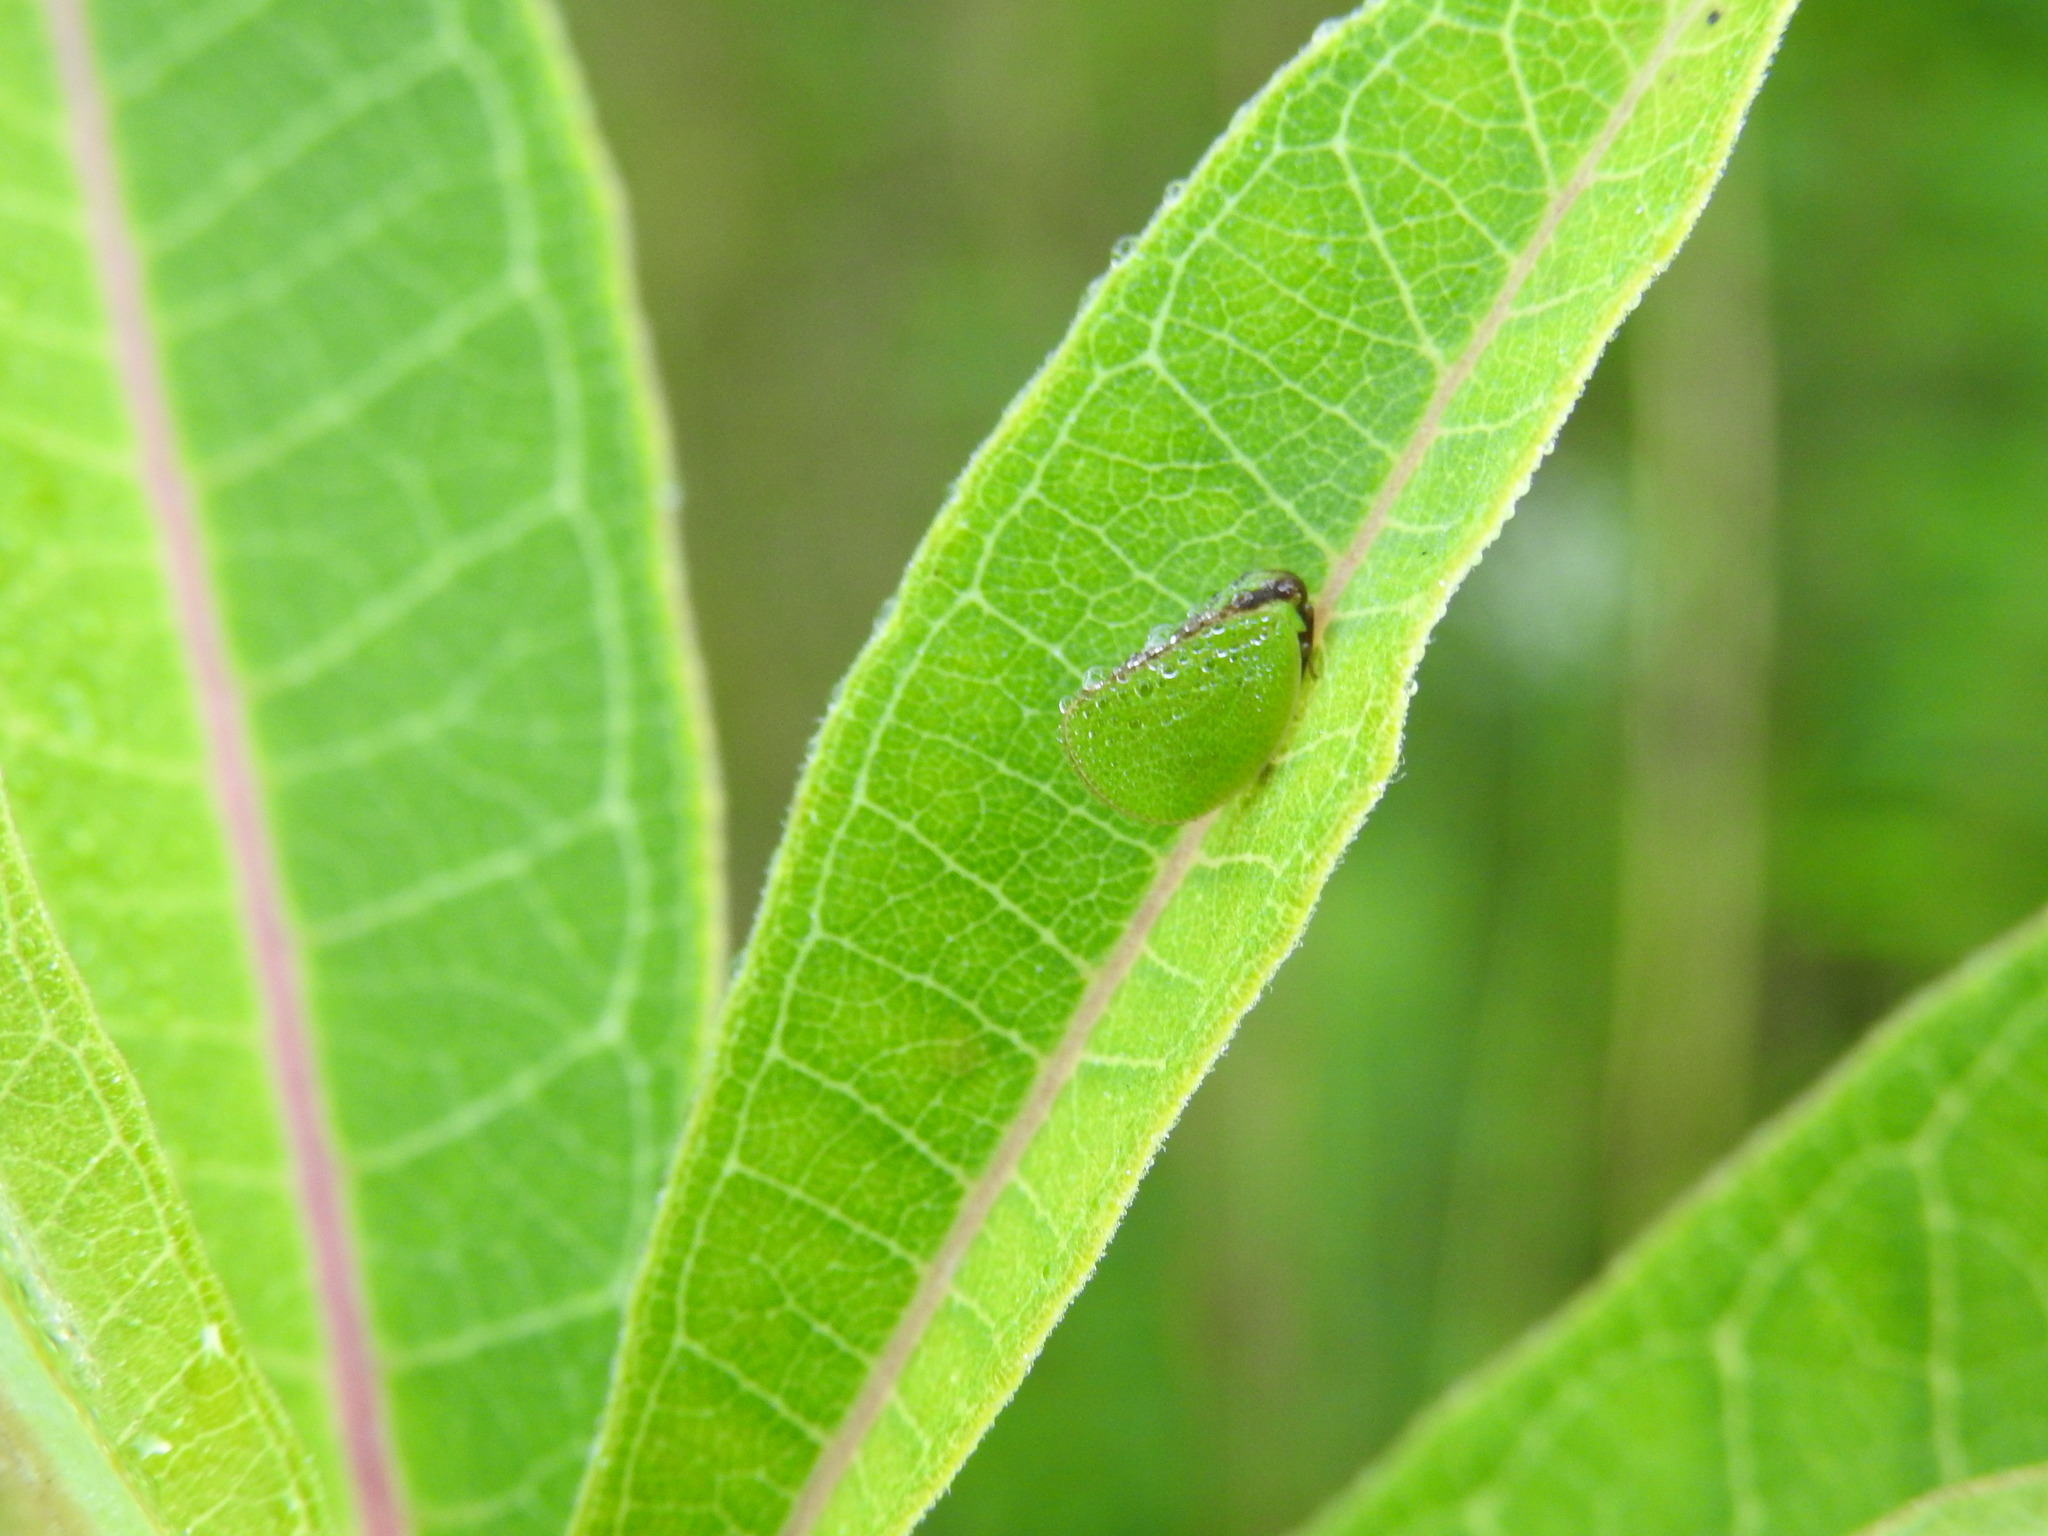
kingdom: Animalia
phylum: Arthropoda
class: Insecta
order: Hemiptera
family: Acanaloniidae
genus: Acanalonia
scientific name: Acanalonia bivittata
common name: Two-striped planthopper
